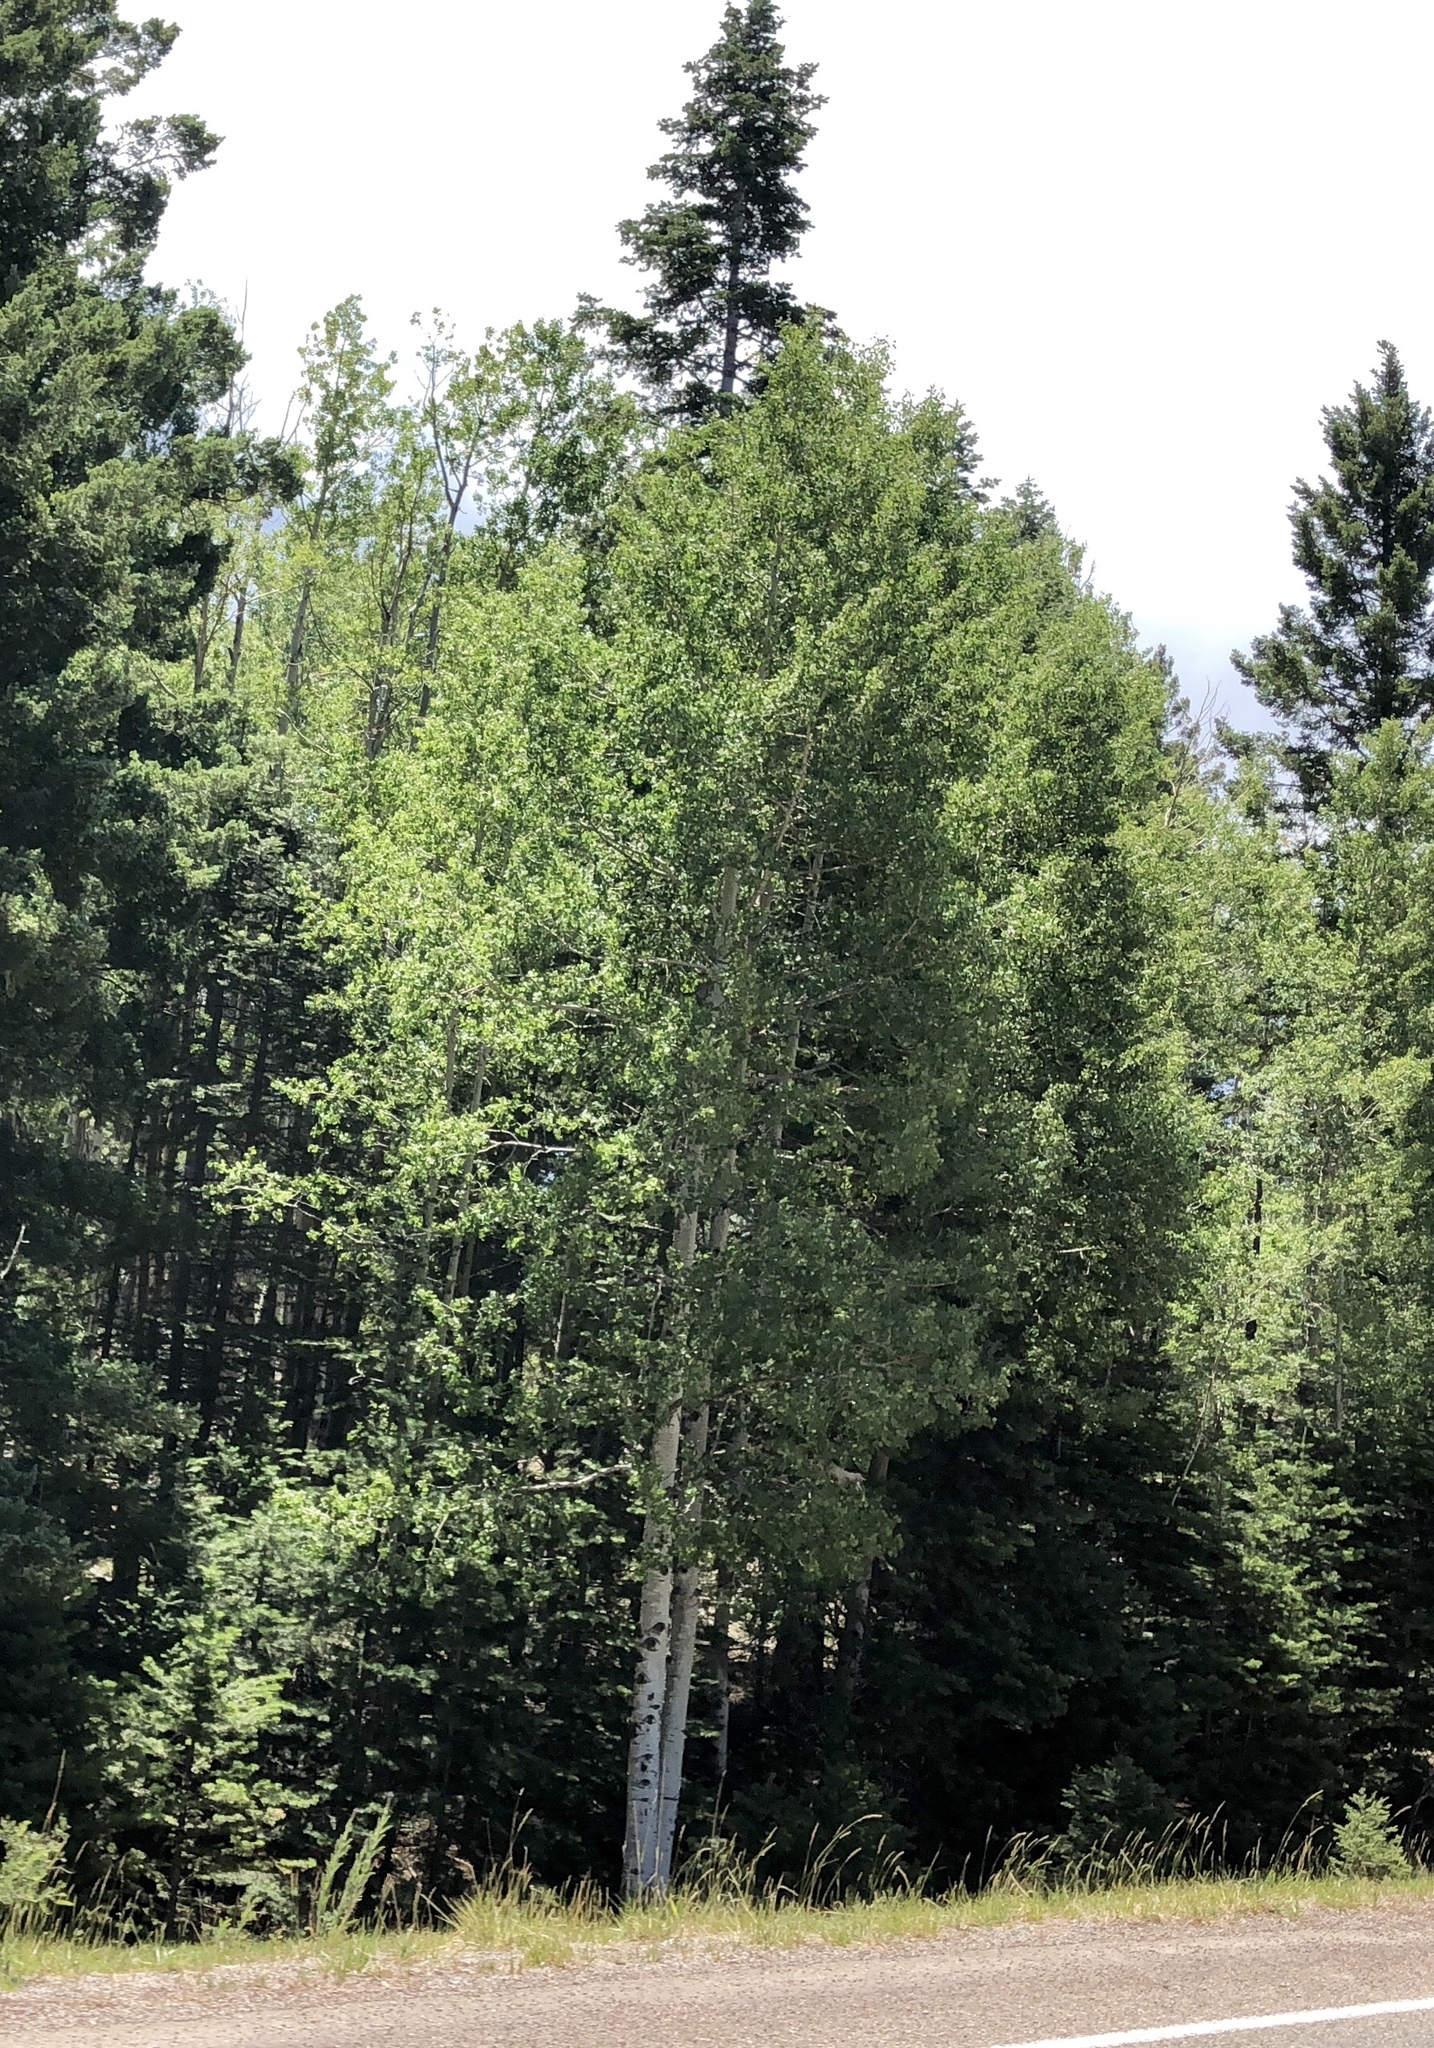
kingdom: Plantae
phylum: Tracheophyta
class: Magnoliopsida
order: Malpighiales
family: Salicaceae
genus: Populus
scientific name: Populus tremuloides
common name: Quaking aspen
